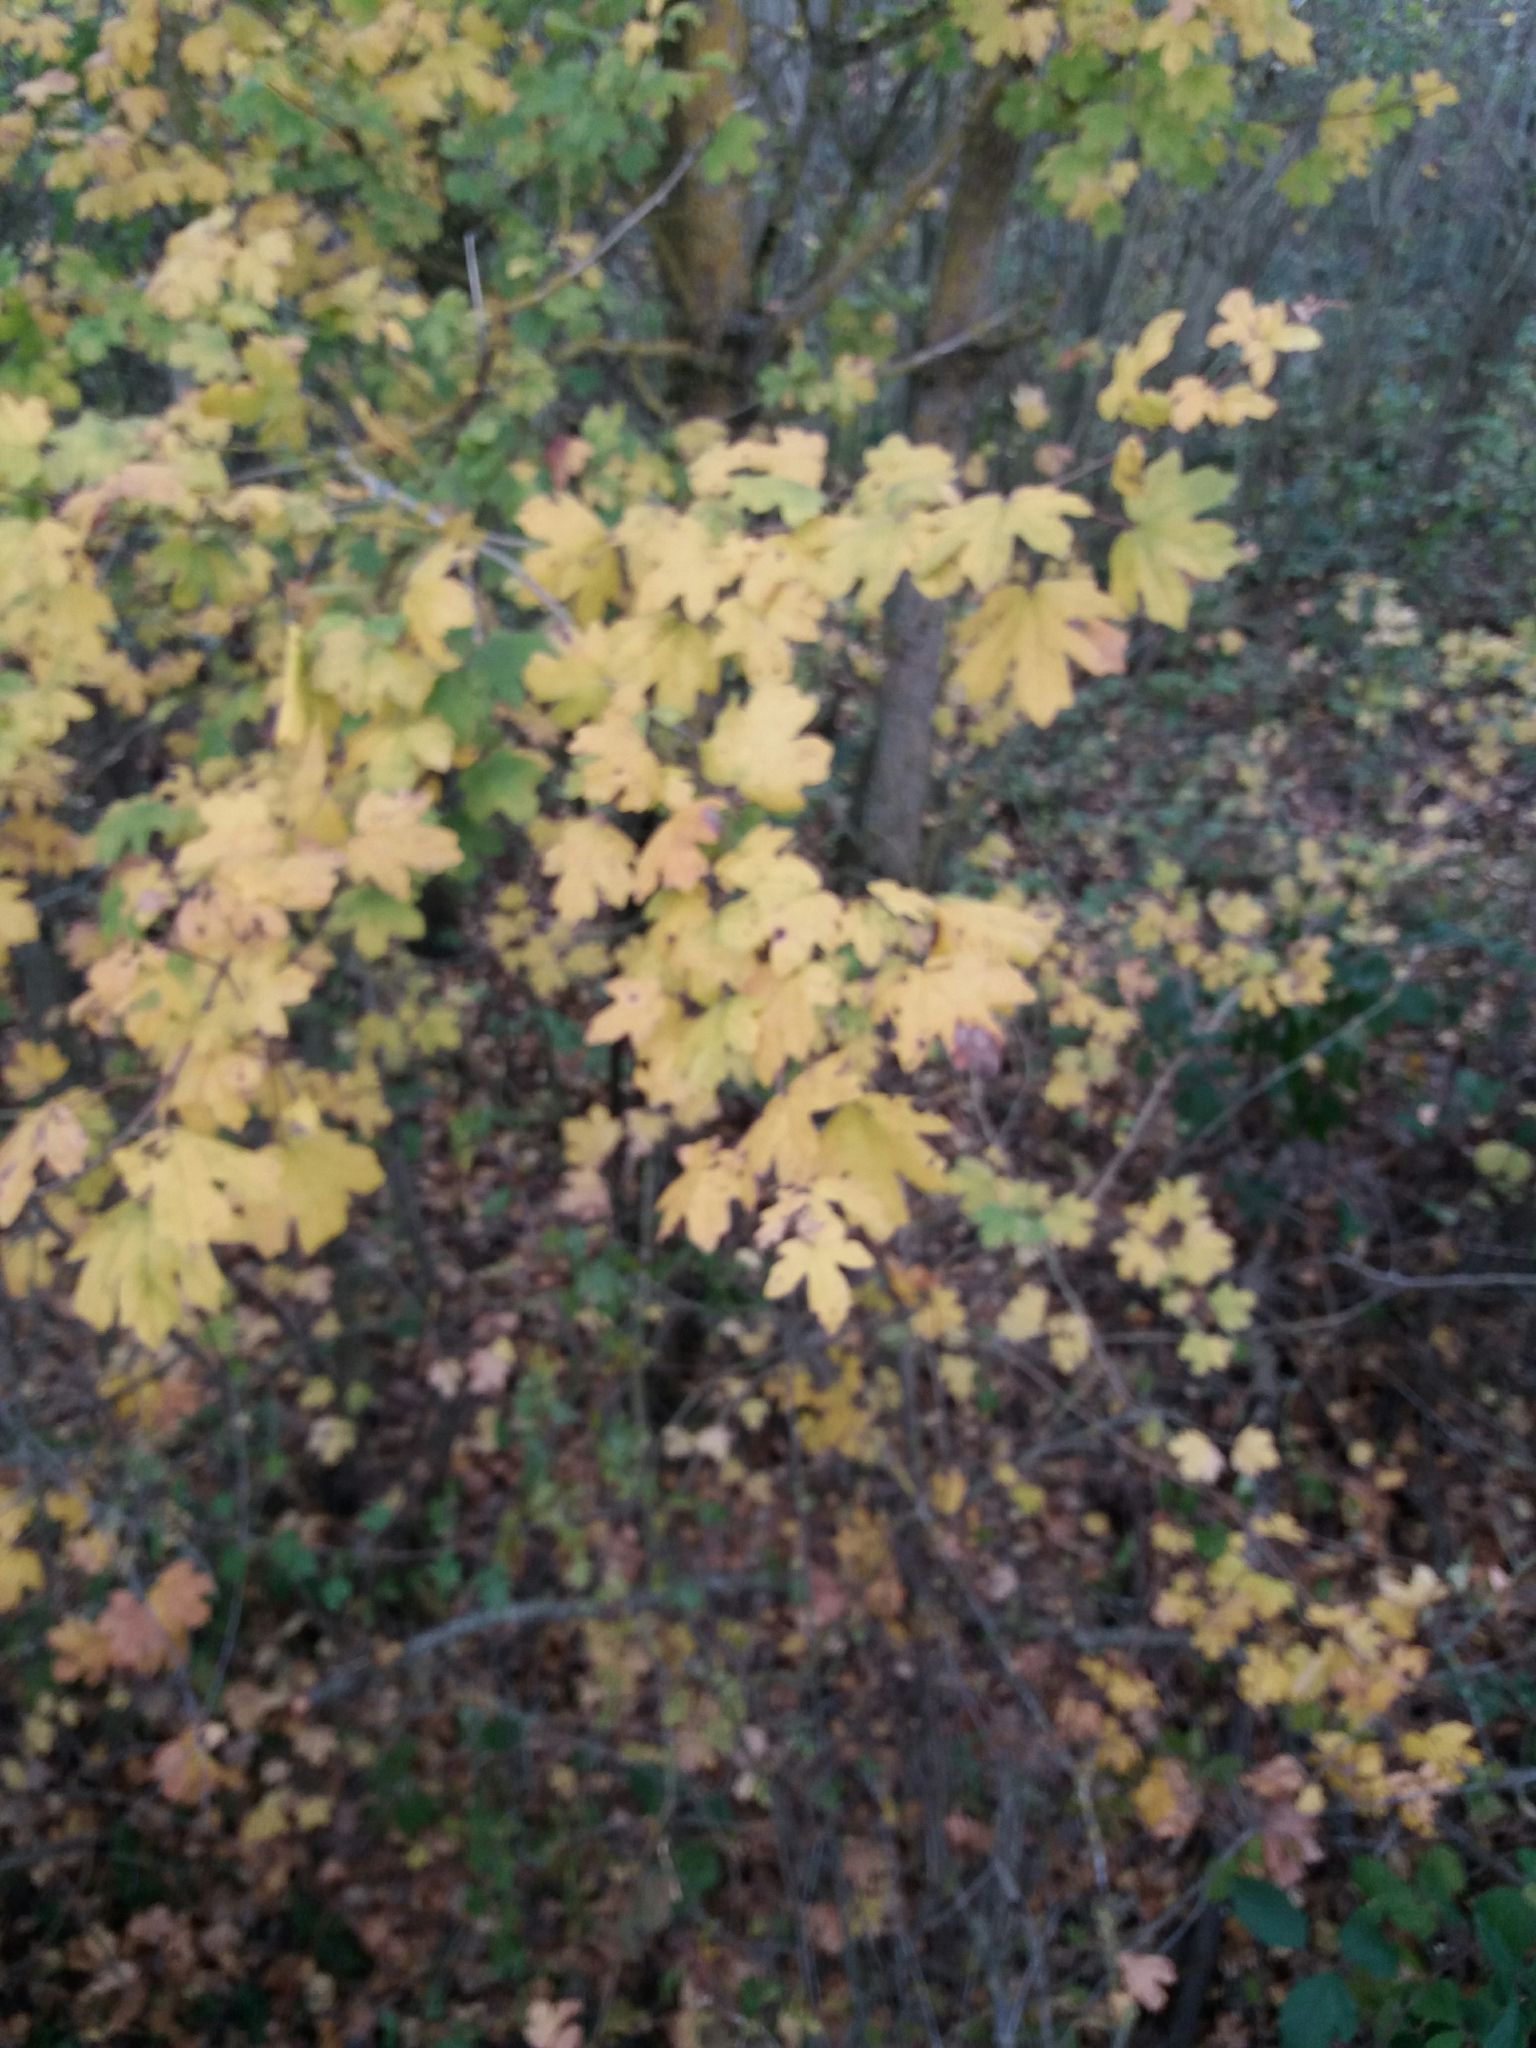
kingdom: Plantae
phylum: Tracheophyta
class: Magnoliopsida
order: Sapindales
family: Sapindaceae
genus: Acer
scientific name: Acer campestre
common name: Field maple
